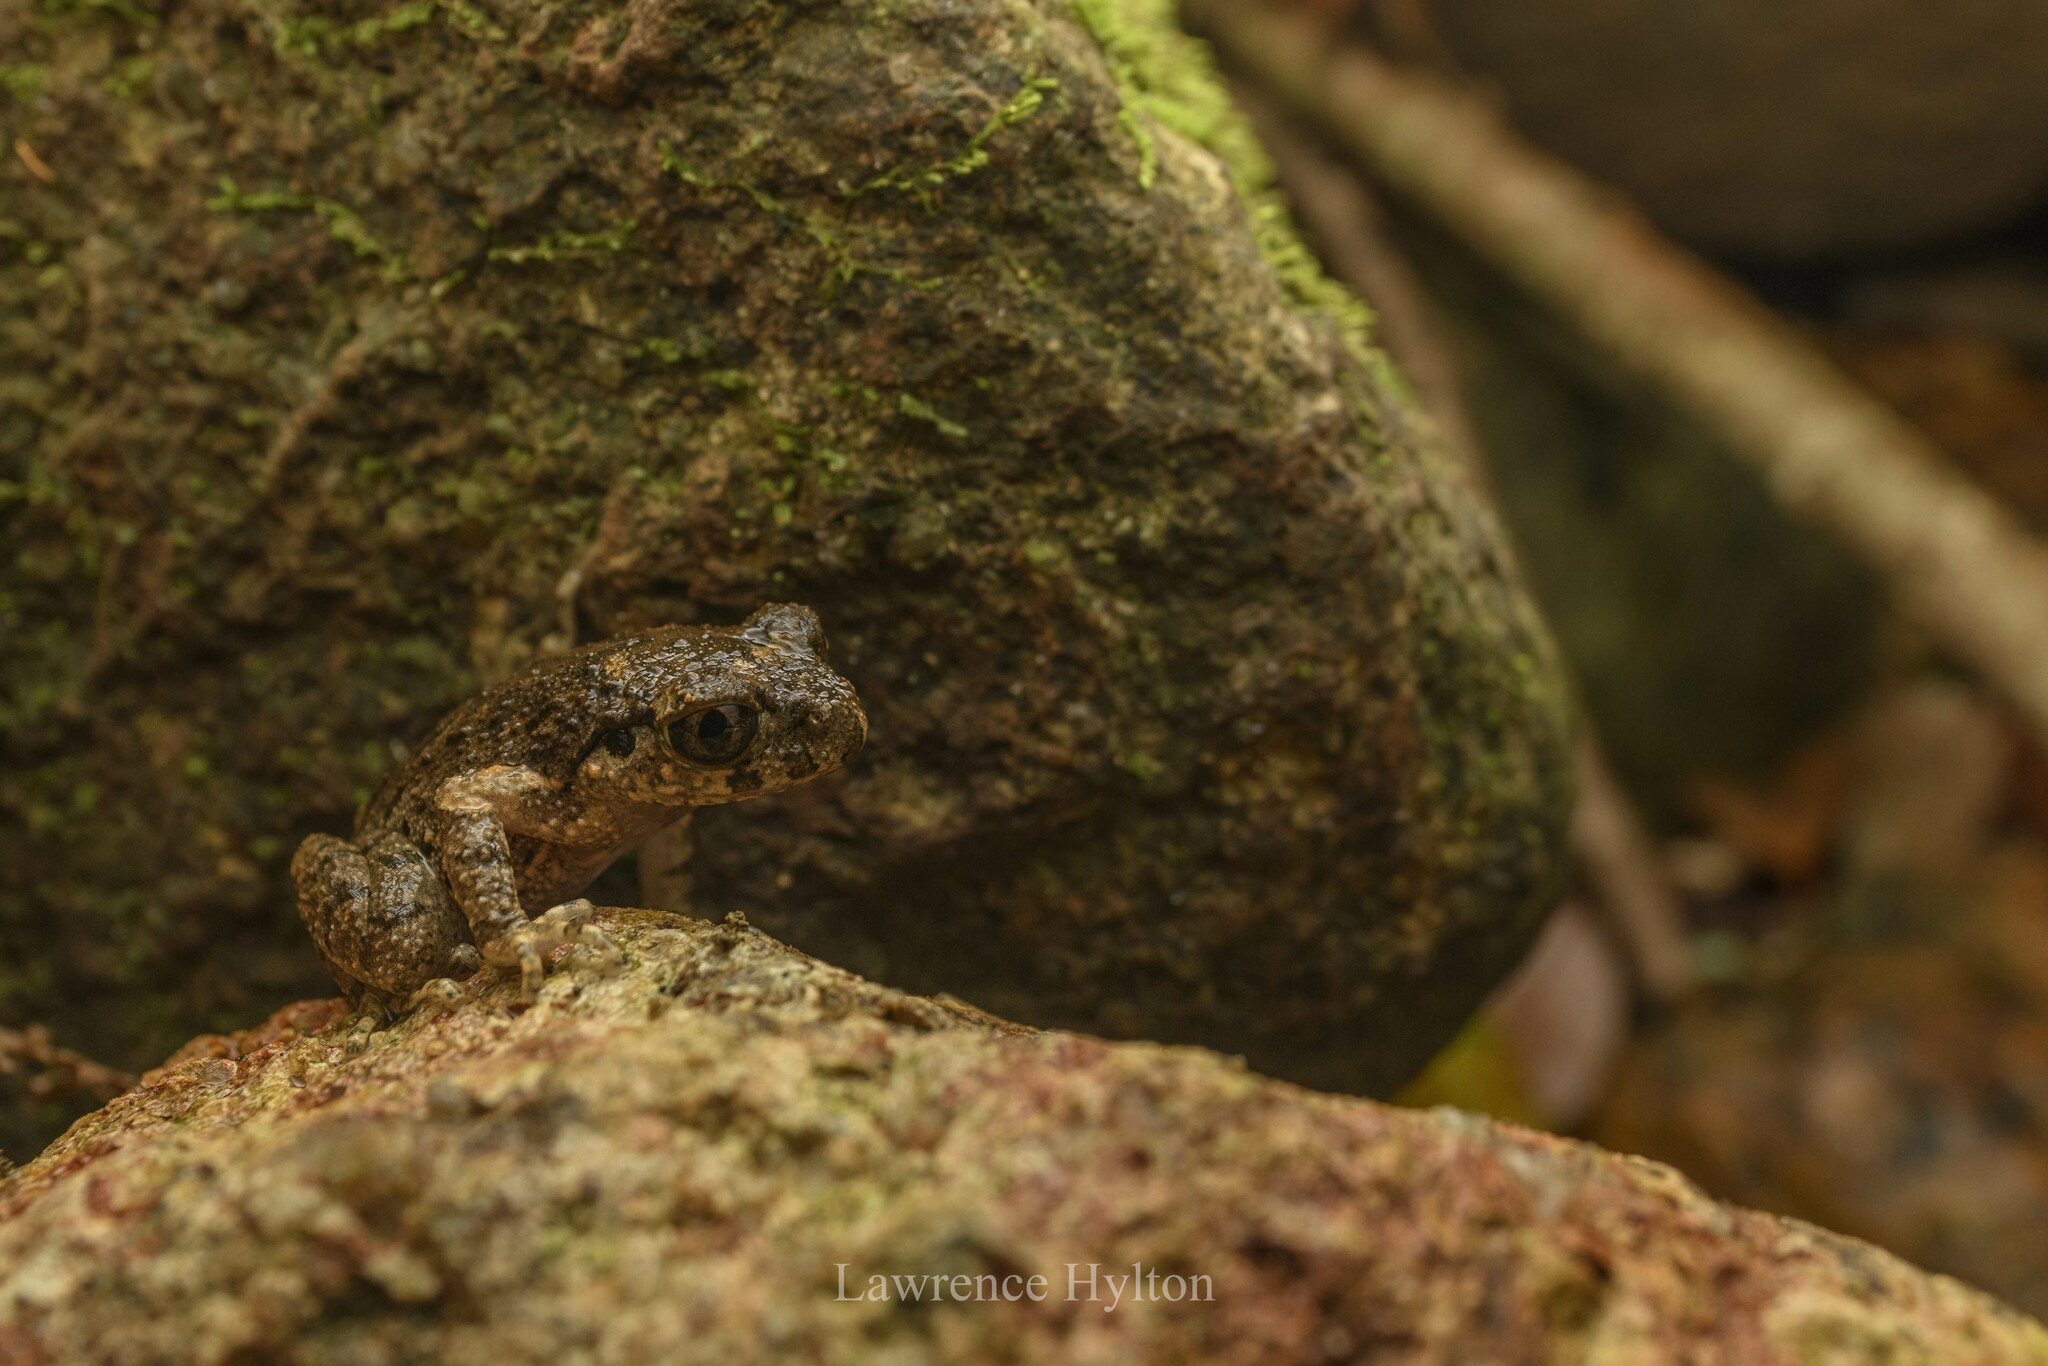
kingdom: Animalia
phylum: Chordata
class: Amphibia
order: Anura
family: Megophryidae
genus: Leptobrachella
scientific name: Leptobrachella laui
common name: Lau's leaf little toad
